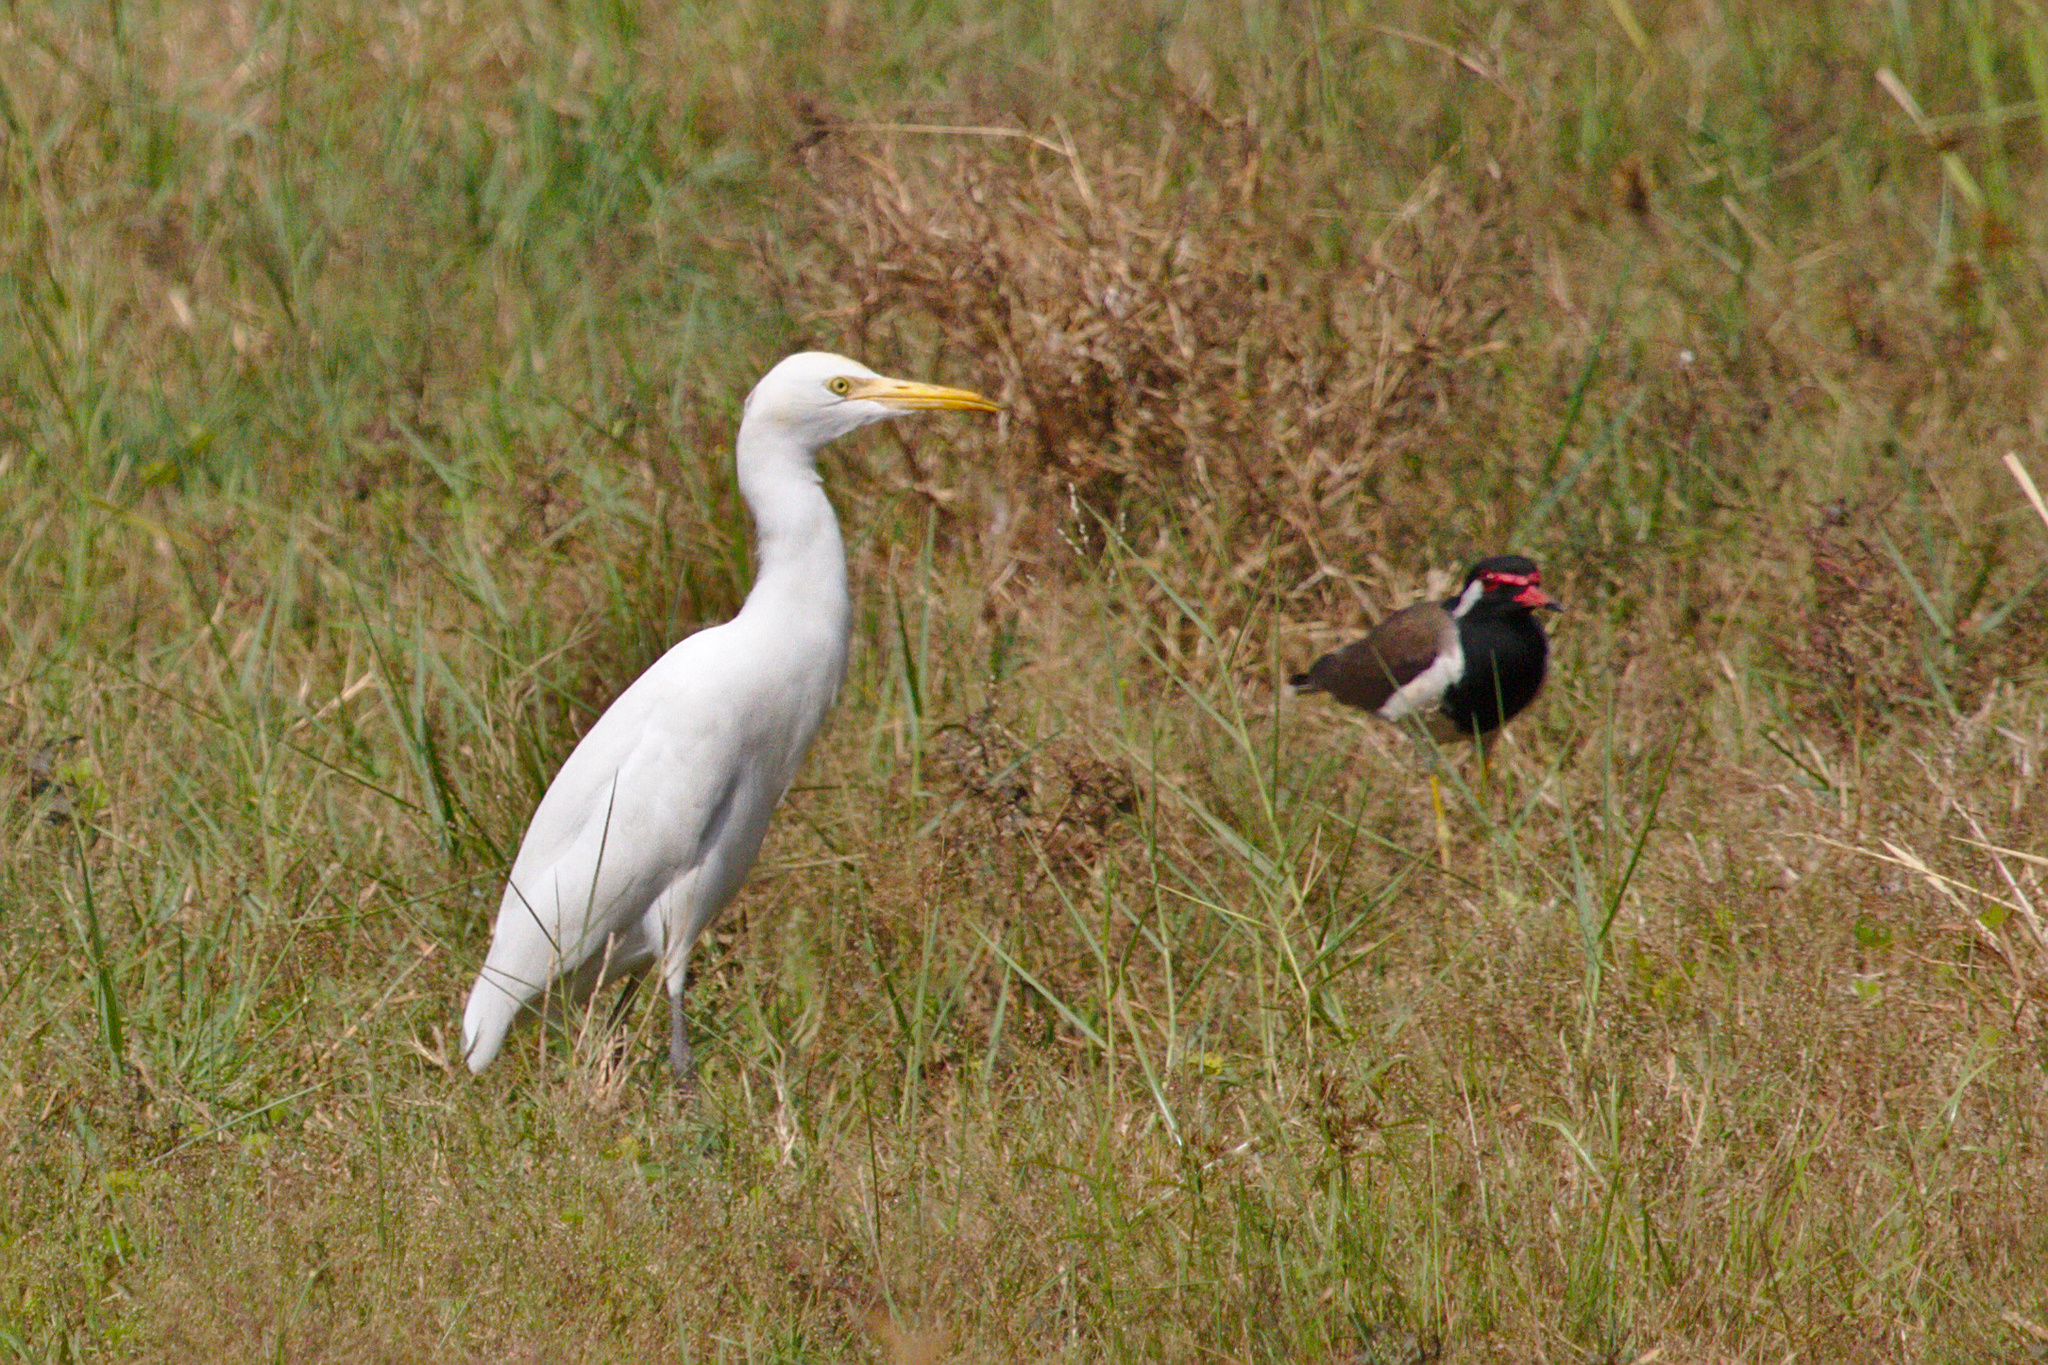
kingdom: Animalia
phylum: Chordata
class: Aves
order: Pelecaniformes
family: Ardeidae
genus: Bubulcus
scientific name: Bubulcus coromandus
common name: Eastern cattle egret
